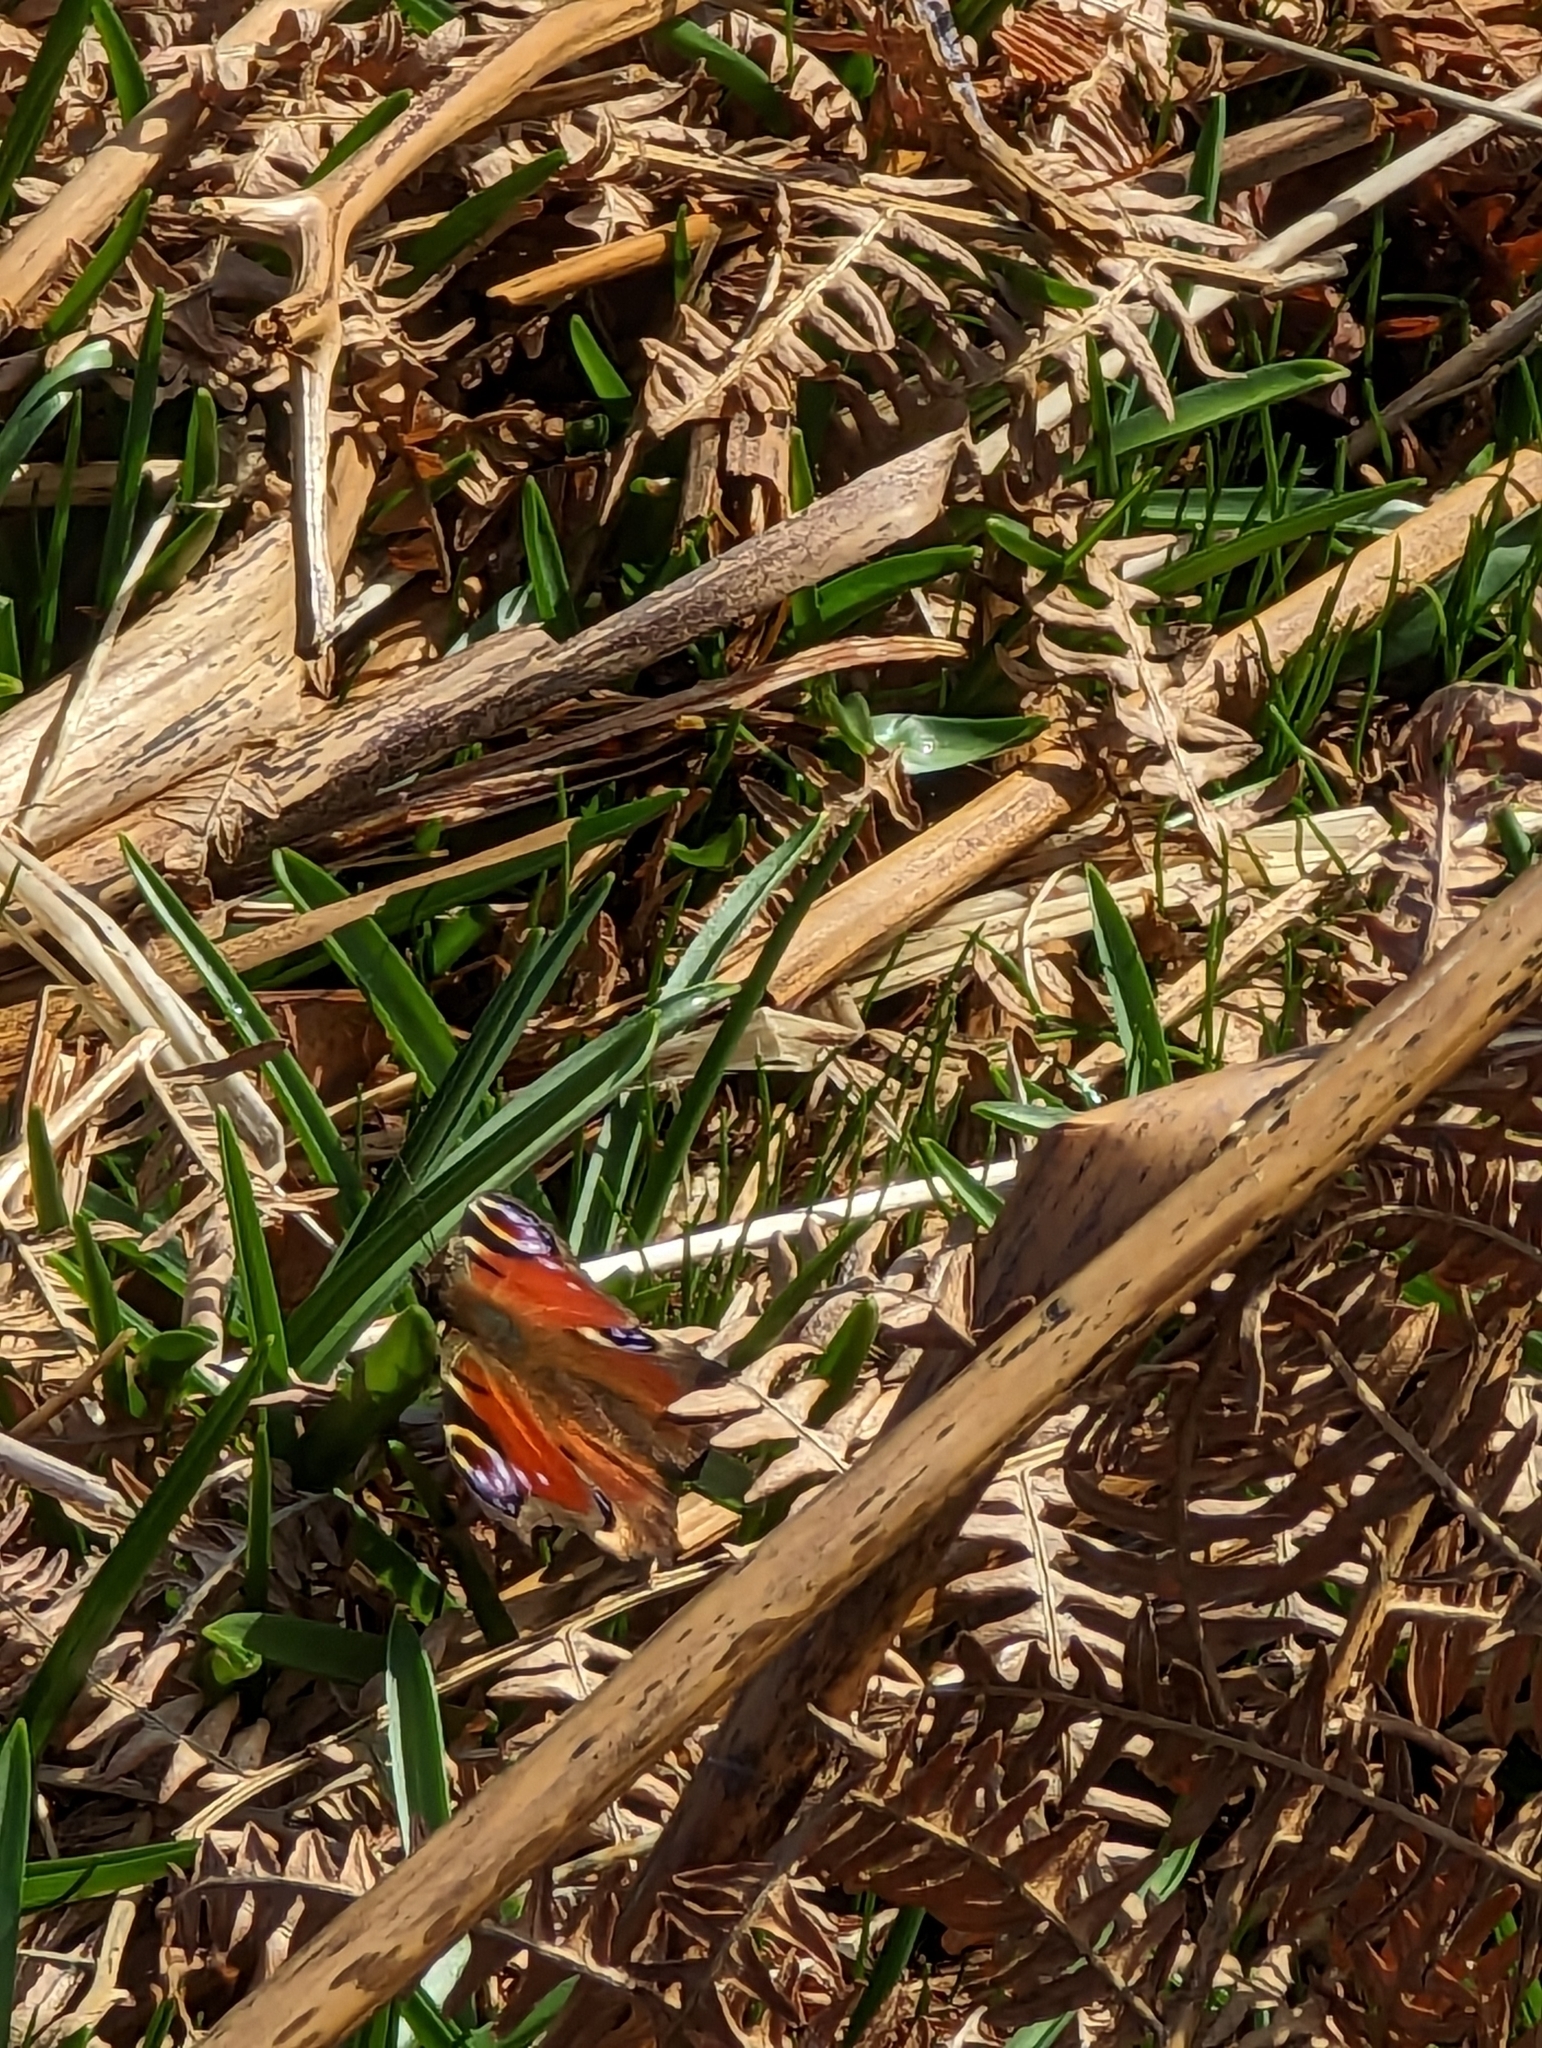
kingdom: Animalia
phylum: Arthropoda
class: Insecta
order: Lepidoptera
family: Nymphalidae
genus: Aglais
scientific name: Aglais io
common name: Peacock
